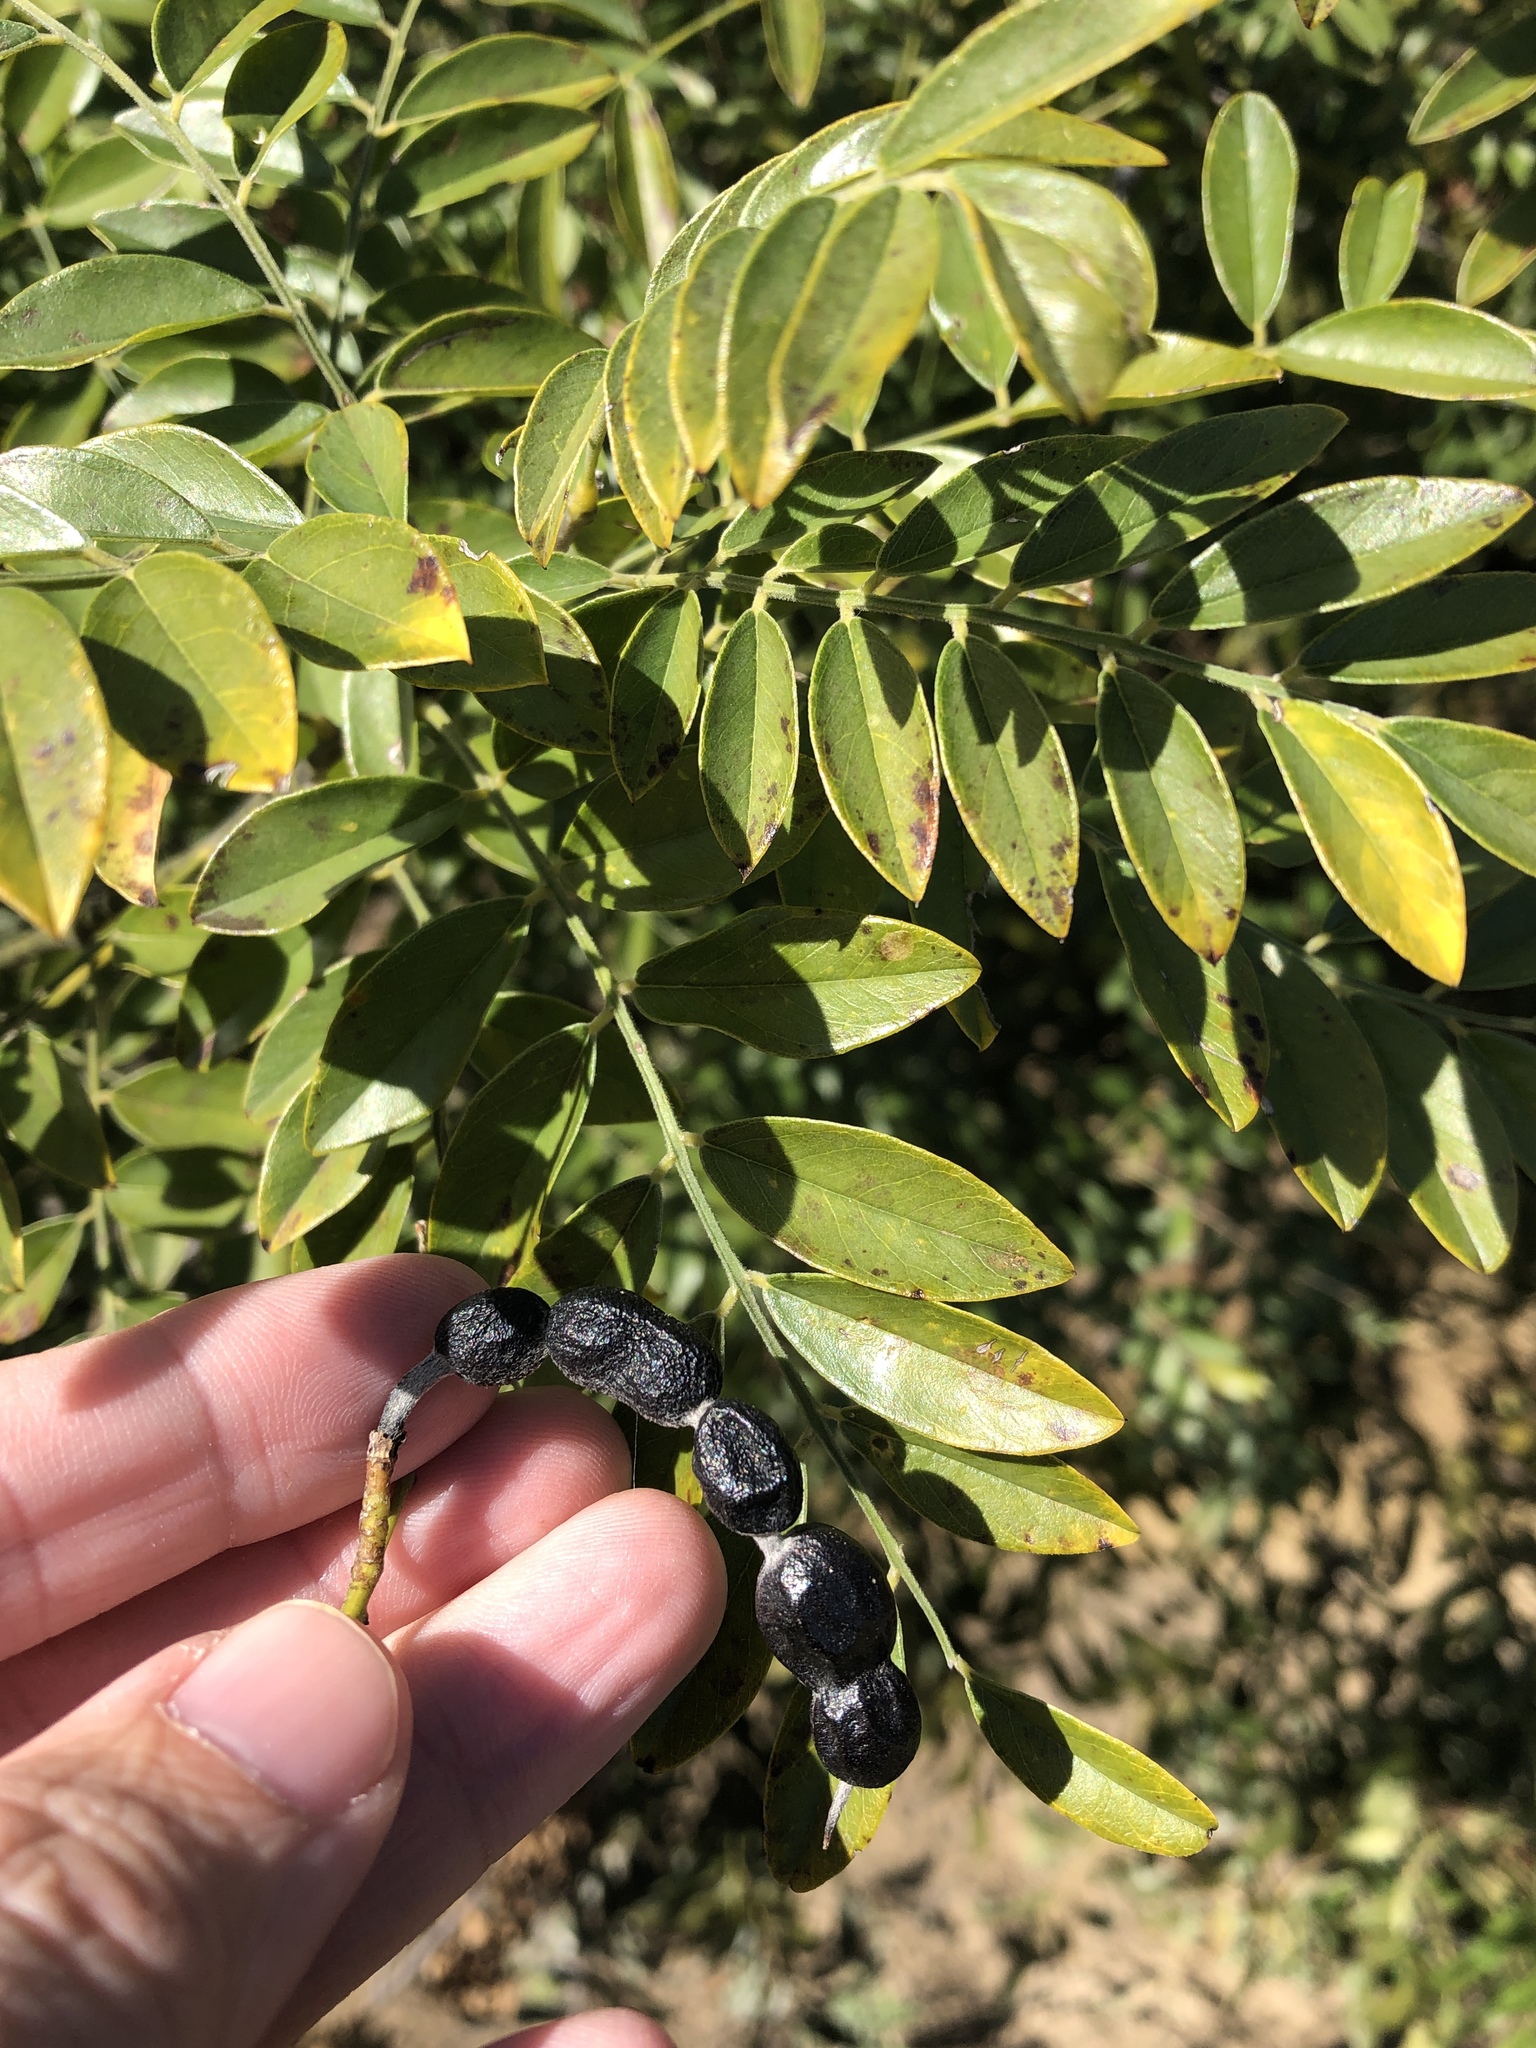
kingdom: Plantae
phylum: Tracheophyta
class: Magnoliopsida
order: Fabales
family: Fabaceae
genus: Styphnolobium
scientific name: Styphnolobium affine
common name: Texas sophora
